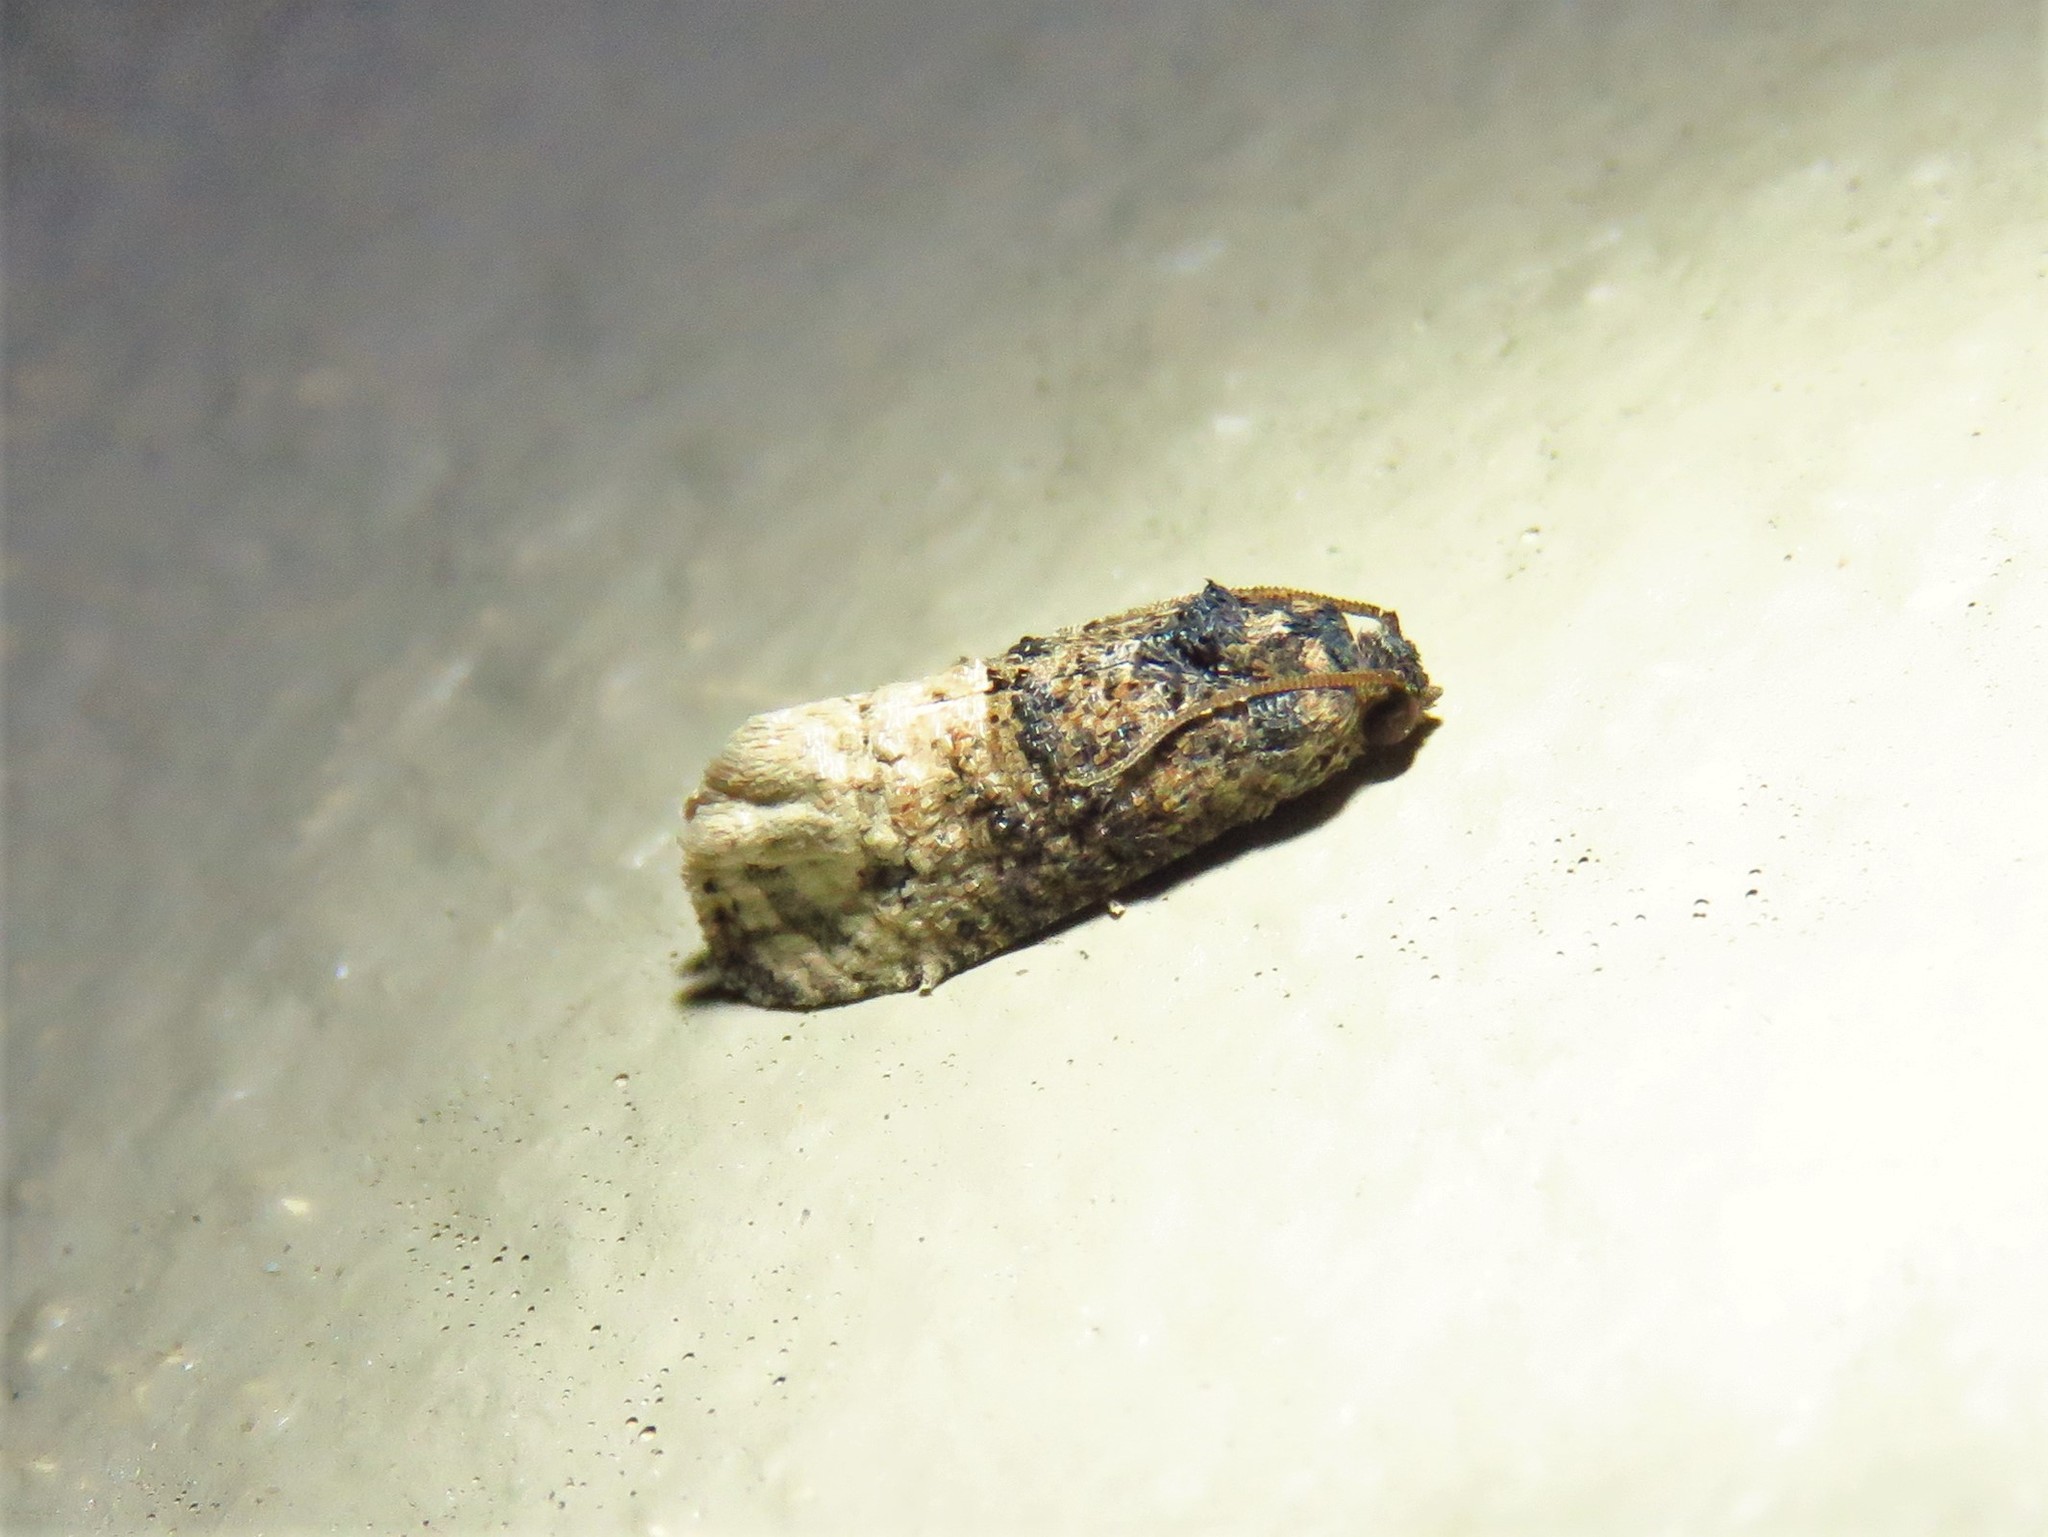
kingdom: Animalia
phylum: Arthropoda
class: Insecta
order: Lepidoptera
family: Tortricidae
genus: Ecdytolopha
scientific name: Ecdytolopha mana
